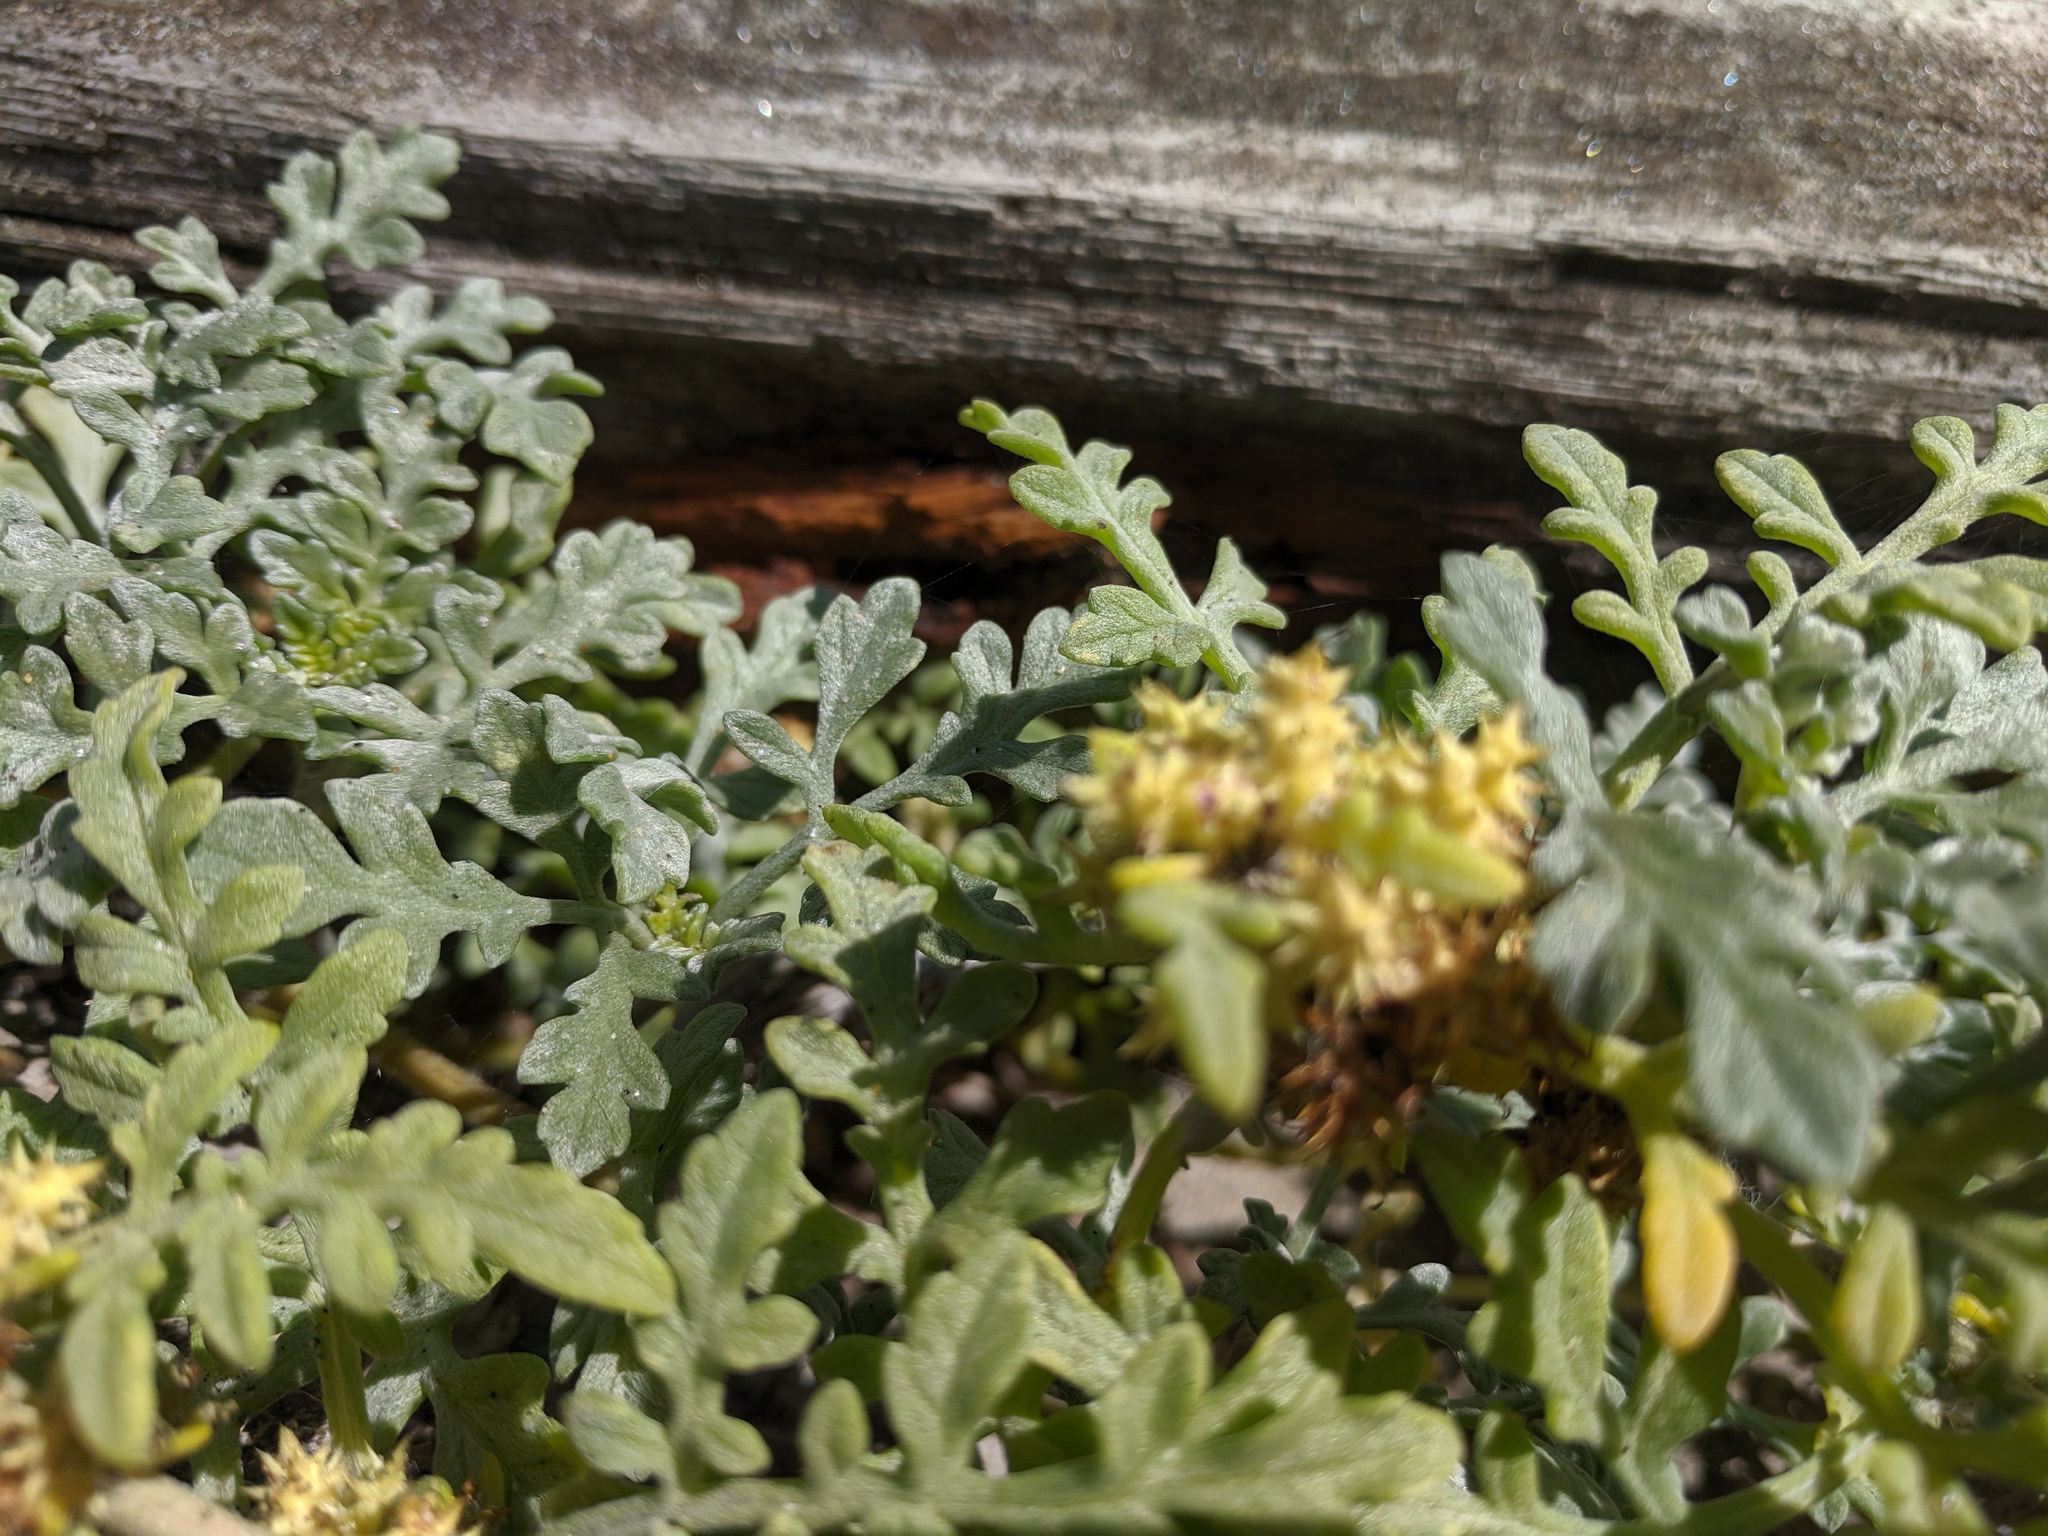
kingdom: Plantae
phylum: Tracheophyta
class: Magnoliopsida
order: Asterales
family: Asteraceae
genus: Ambrosia
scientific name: Ambrosia chamissonis
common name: Beachbur
